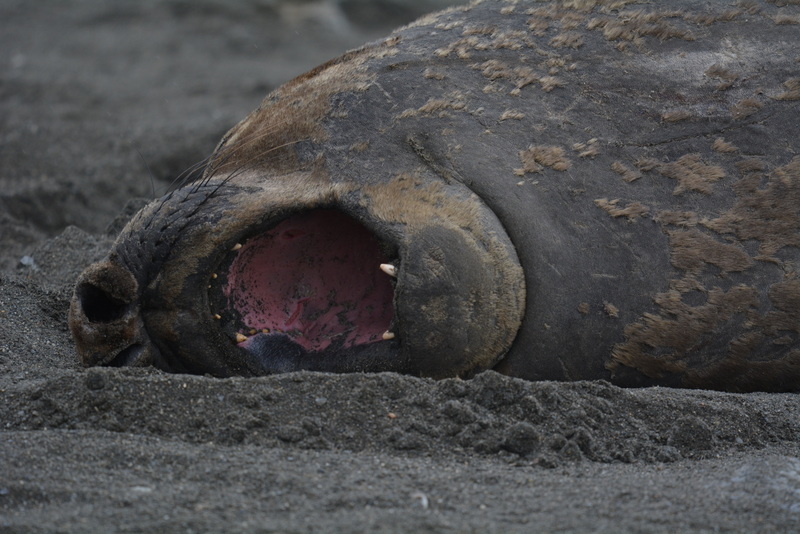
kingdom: Animalia
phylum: Chordata
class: Mammalia
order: Carnivora
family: Phocidae
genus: Mirounga
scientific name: Mirounga leonina
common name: Southern elephant seal
